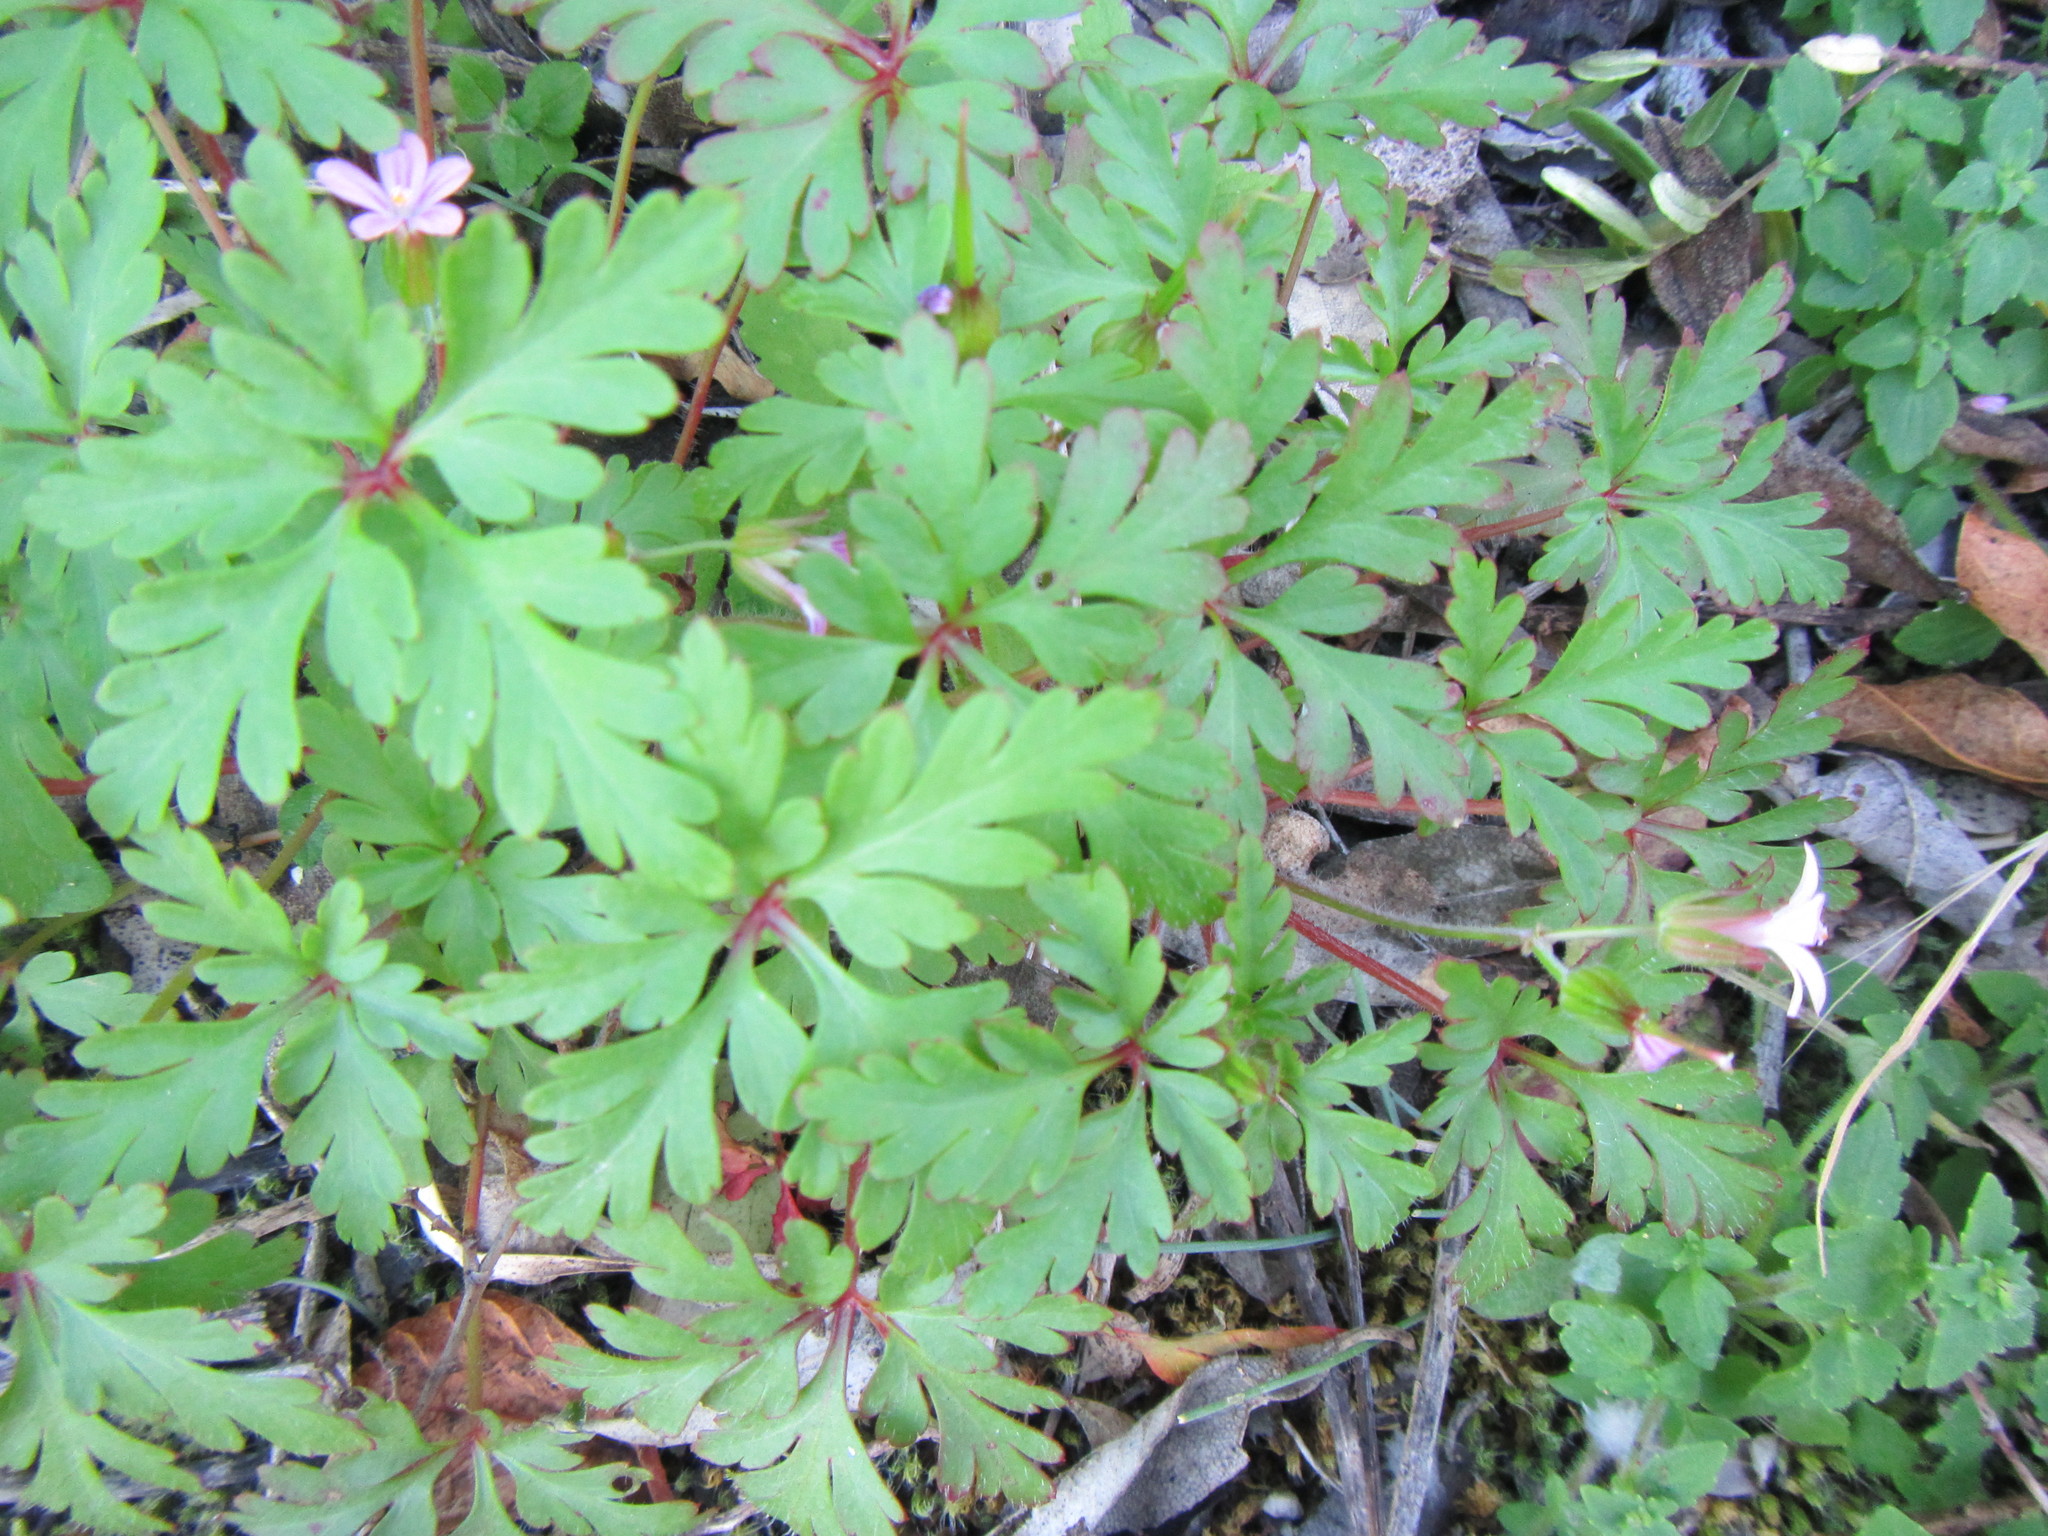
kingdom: Plantae
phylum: Tracheophyta
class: Magnoliopsida
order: Geraniales
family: Geraniaceae
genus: Geranium
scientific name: Geranium purpureum
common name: Little-robin
